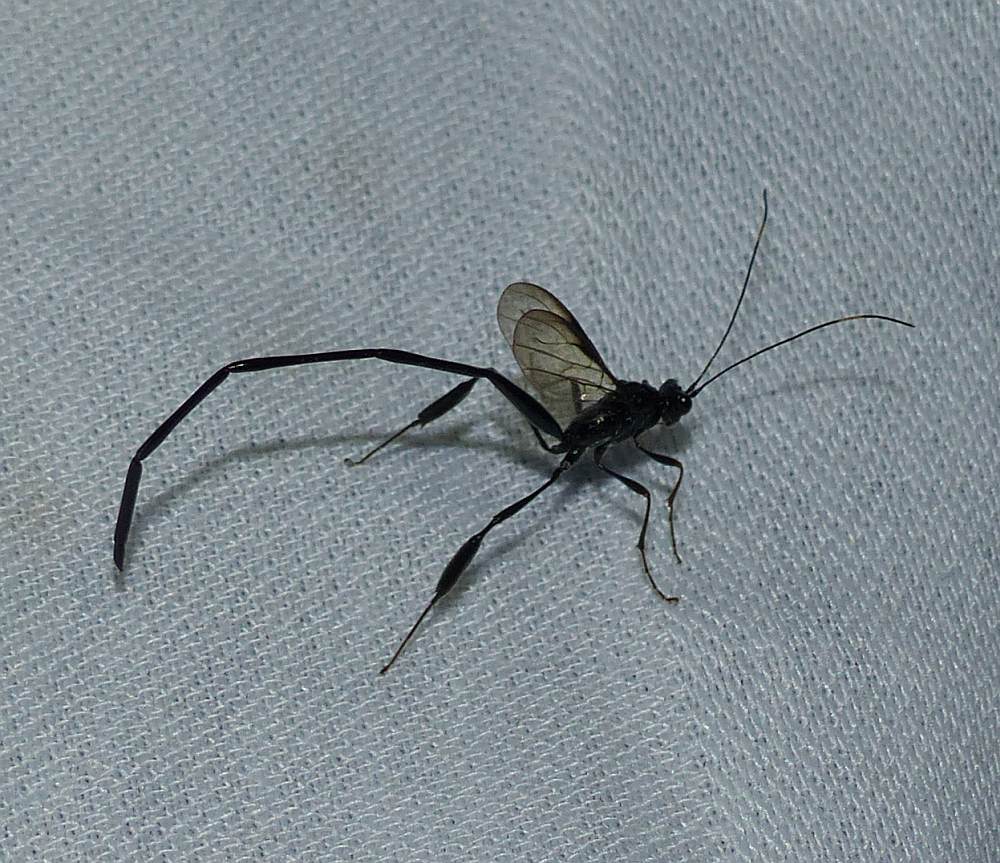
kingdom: Animalia
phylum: Arthropoda
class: Insecta
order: Hymenoptera
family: Pelecinidae
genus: Pelecinus
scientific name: Pelecinus polyturator
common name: American pelecinid wasp
